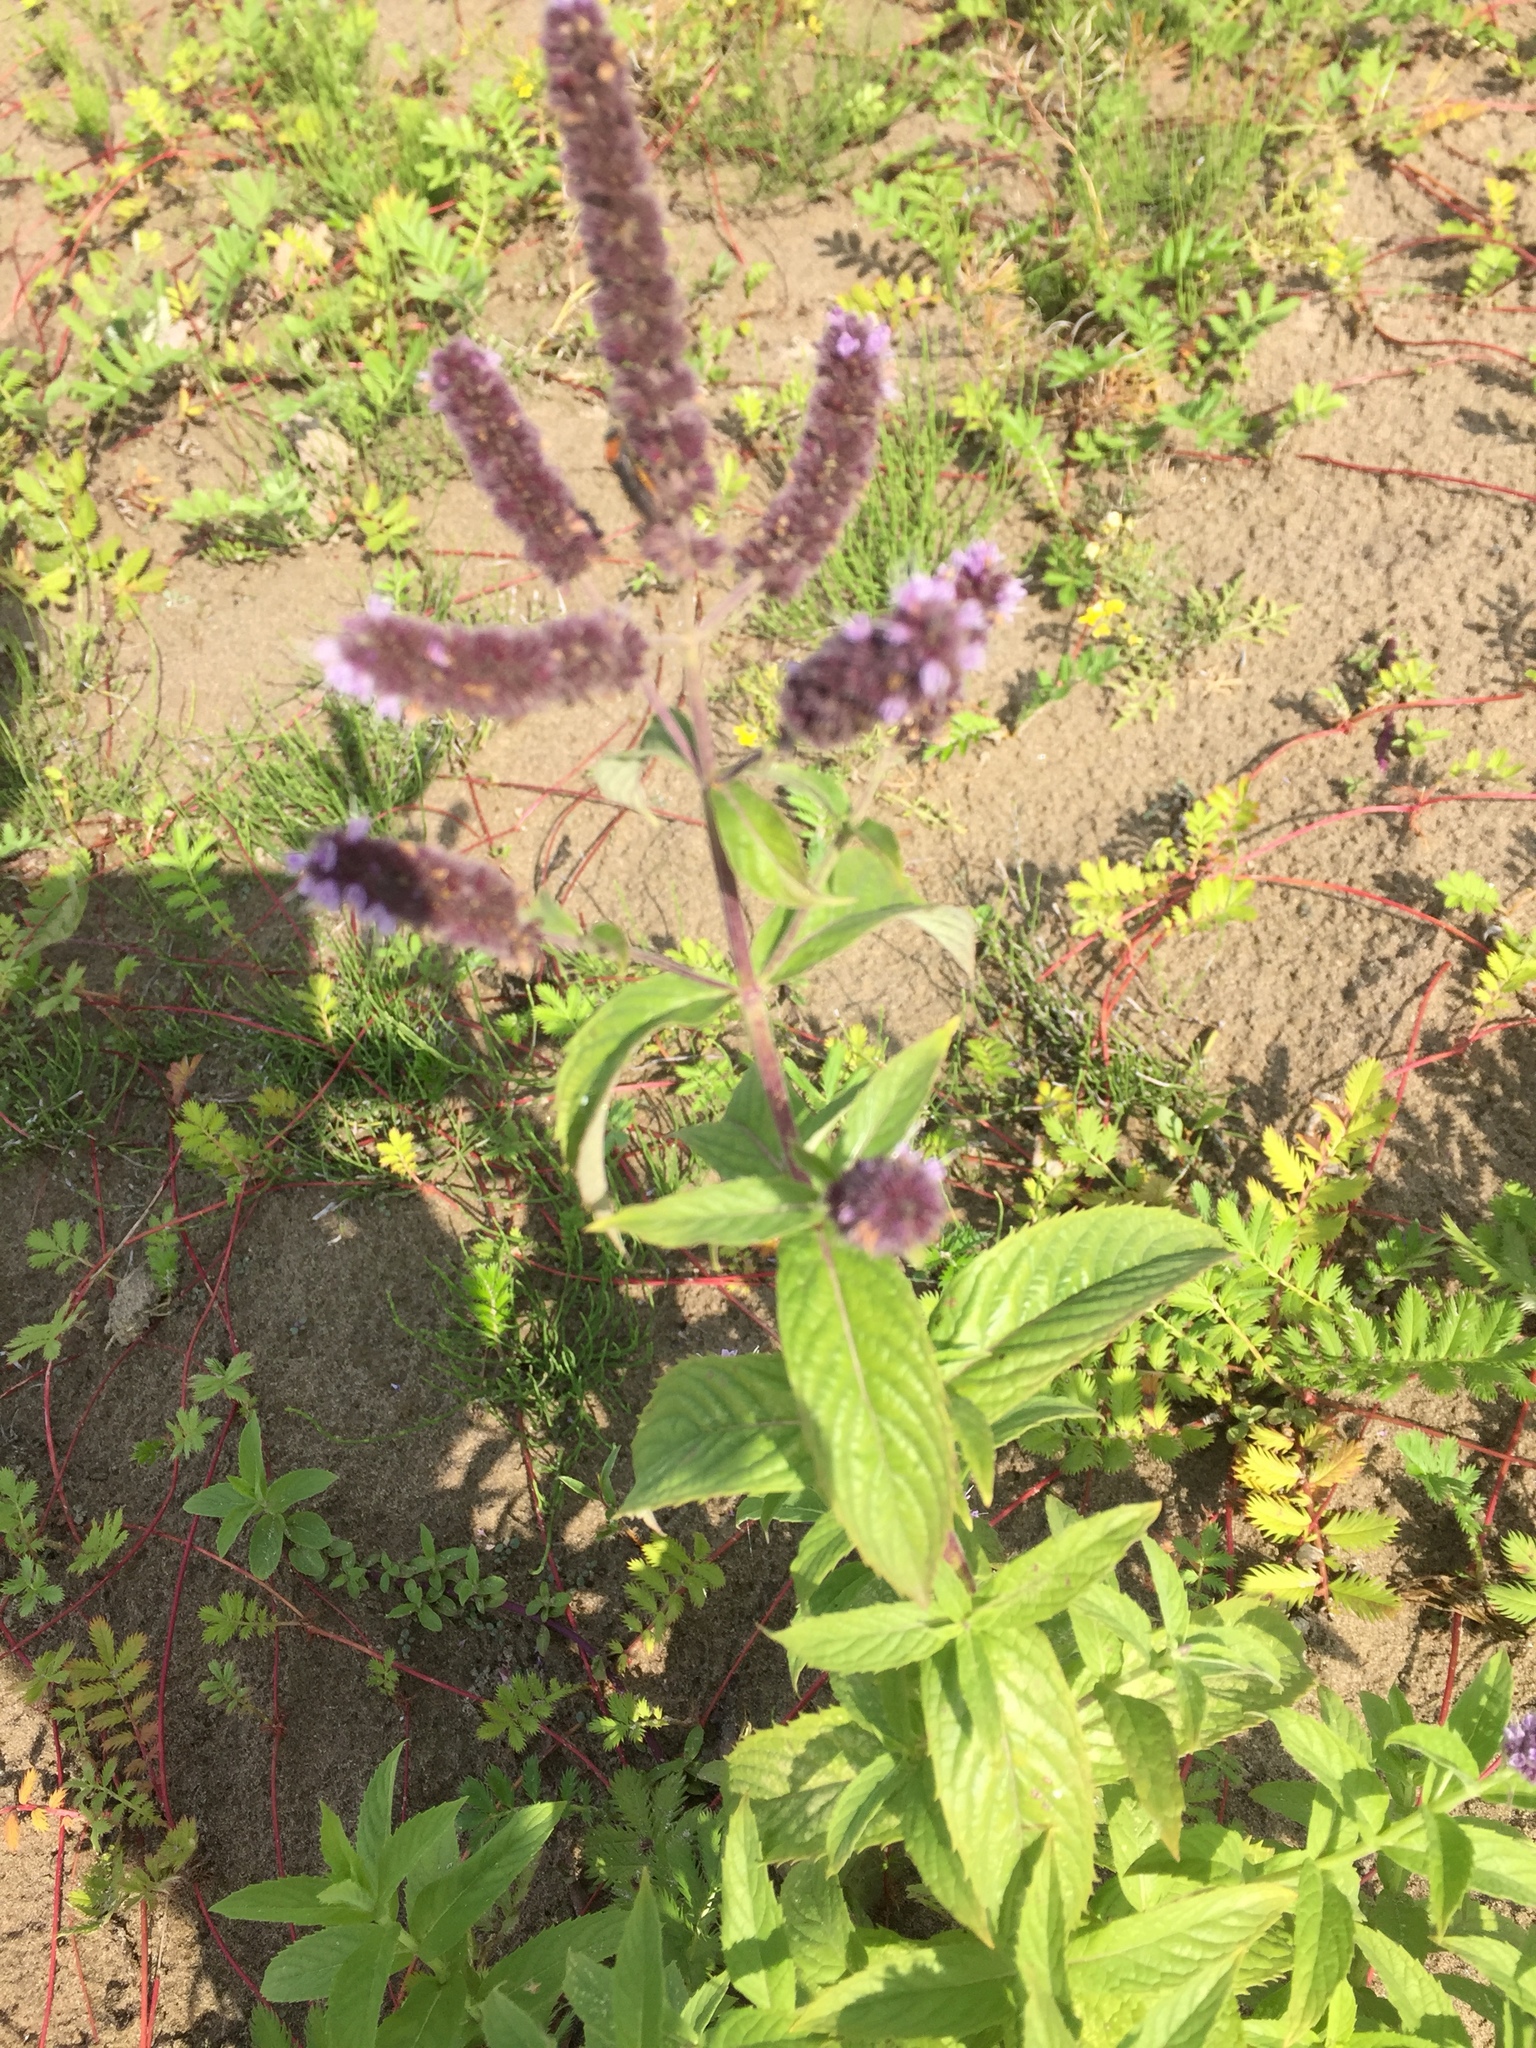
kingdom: Plantae
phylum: Tracheophyta
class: Magnoliopsida
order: Lamiales
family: Lamiaceae
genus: Mentha
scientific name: Mentha longifolia
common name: Horse mint
